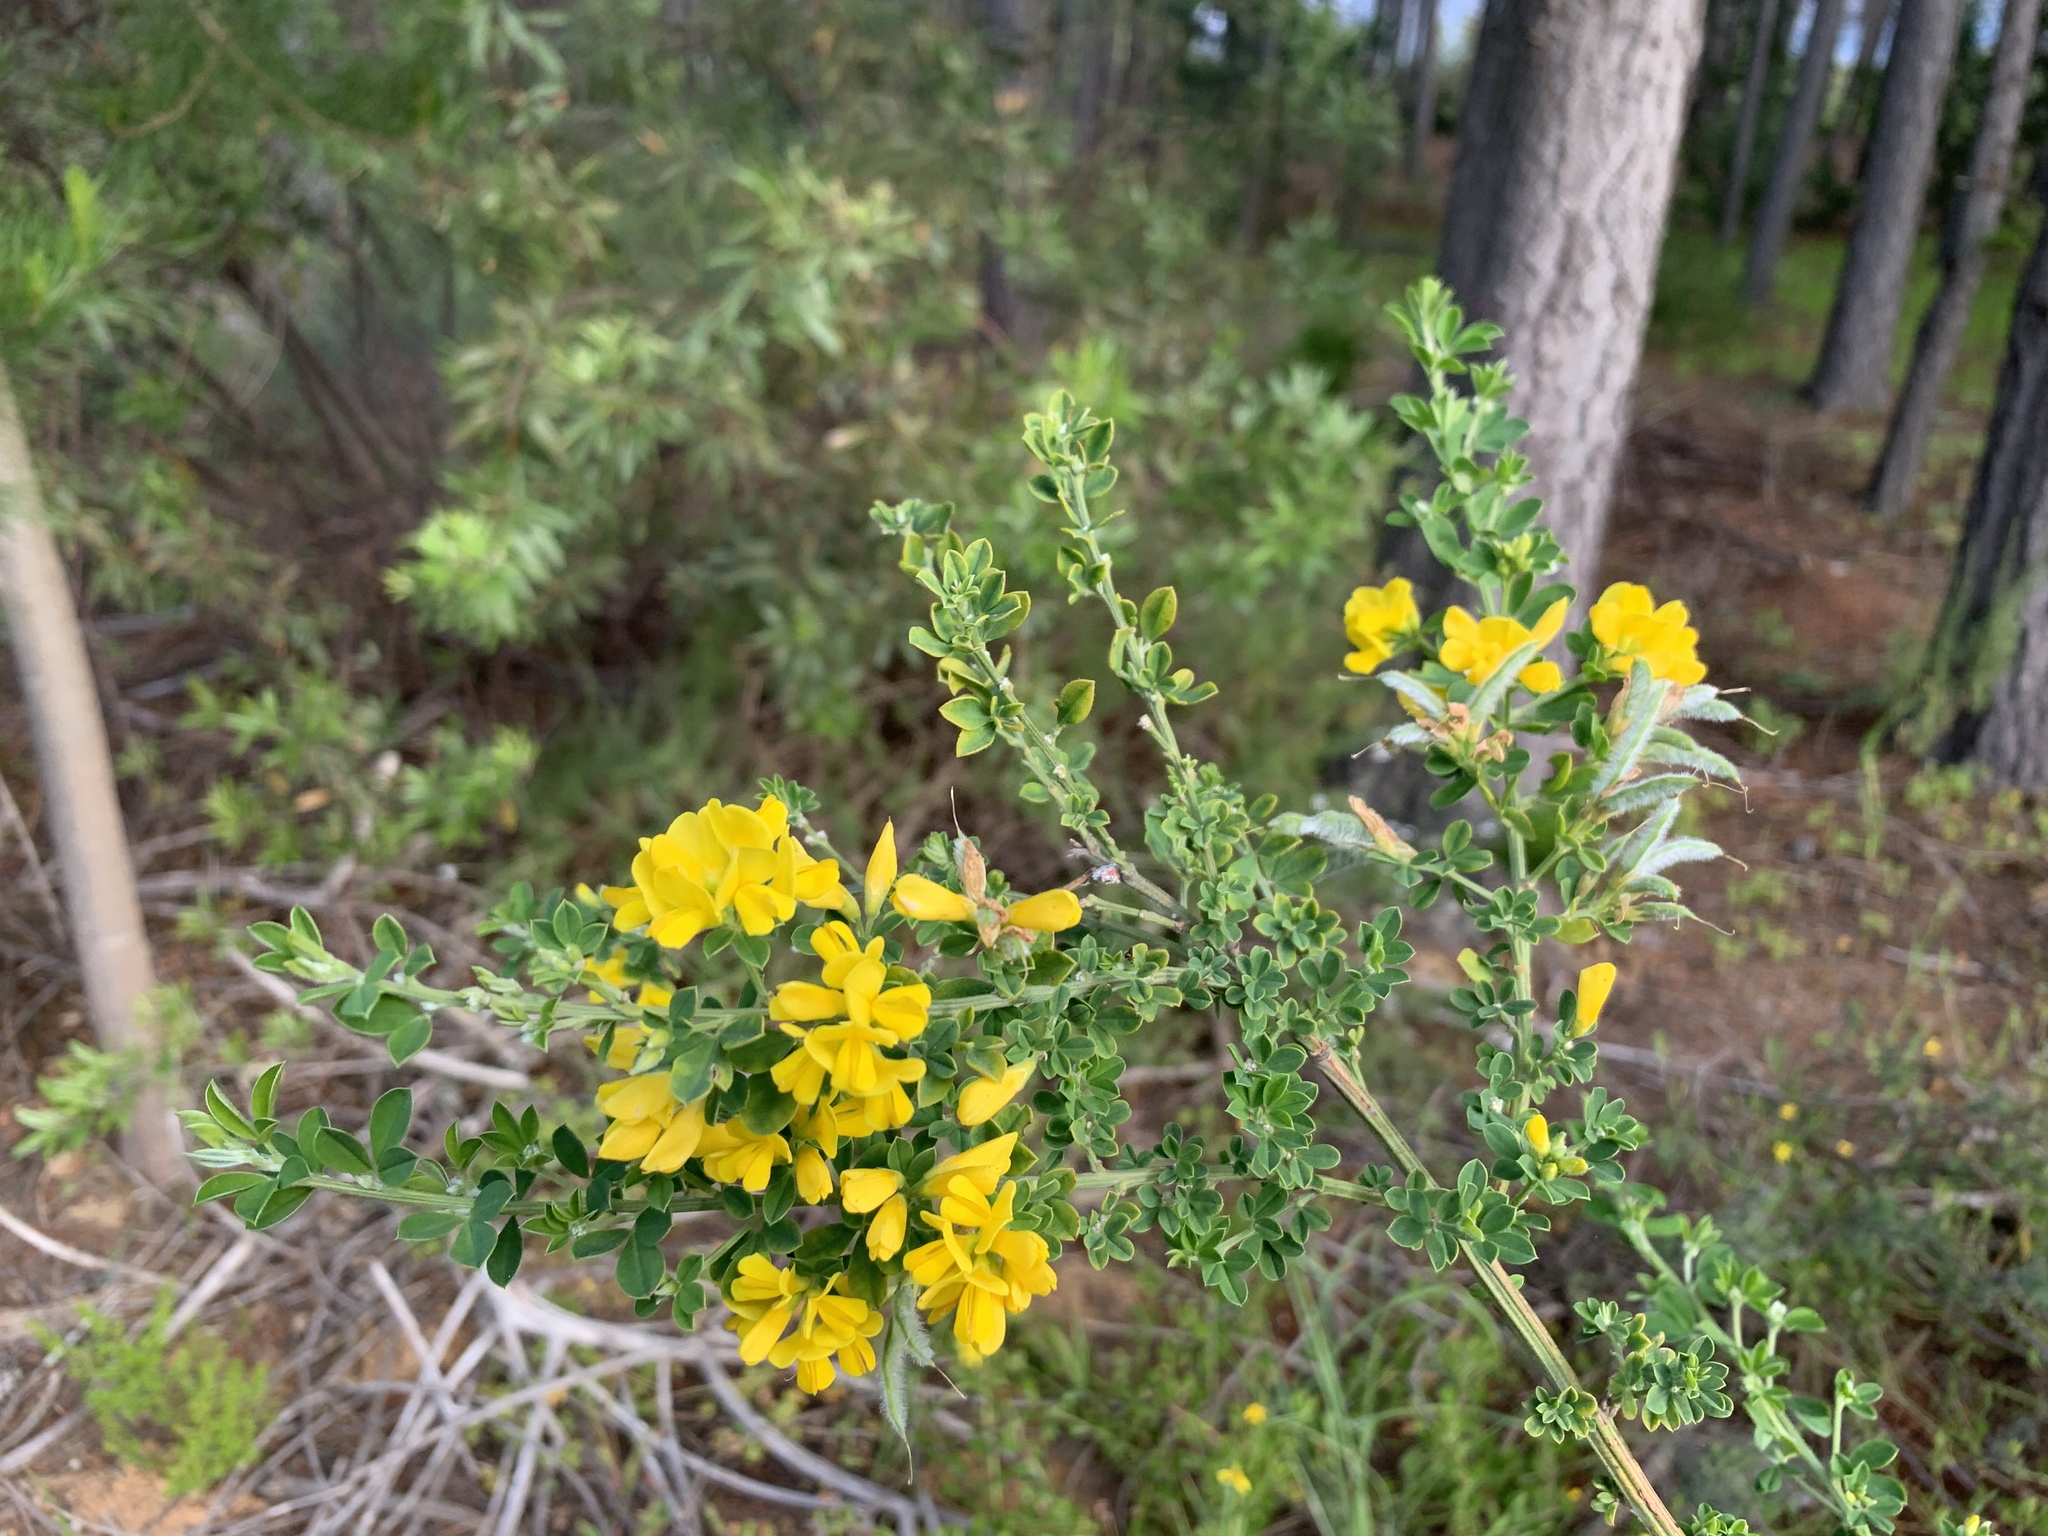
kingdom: Plantae
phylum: Tracheophyta
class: Magnoliopsida
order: Fabales
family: Fabaceae
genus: Genista
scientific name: Genista monspessulana
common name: Montpellier broom
